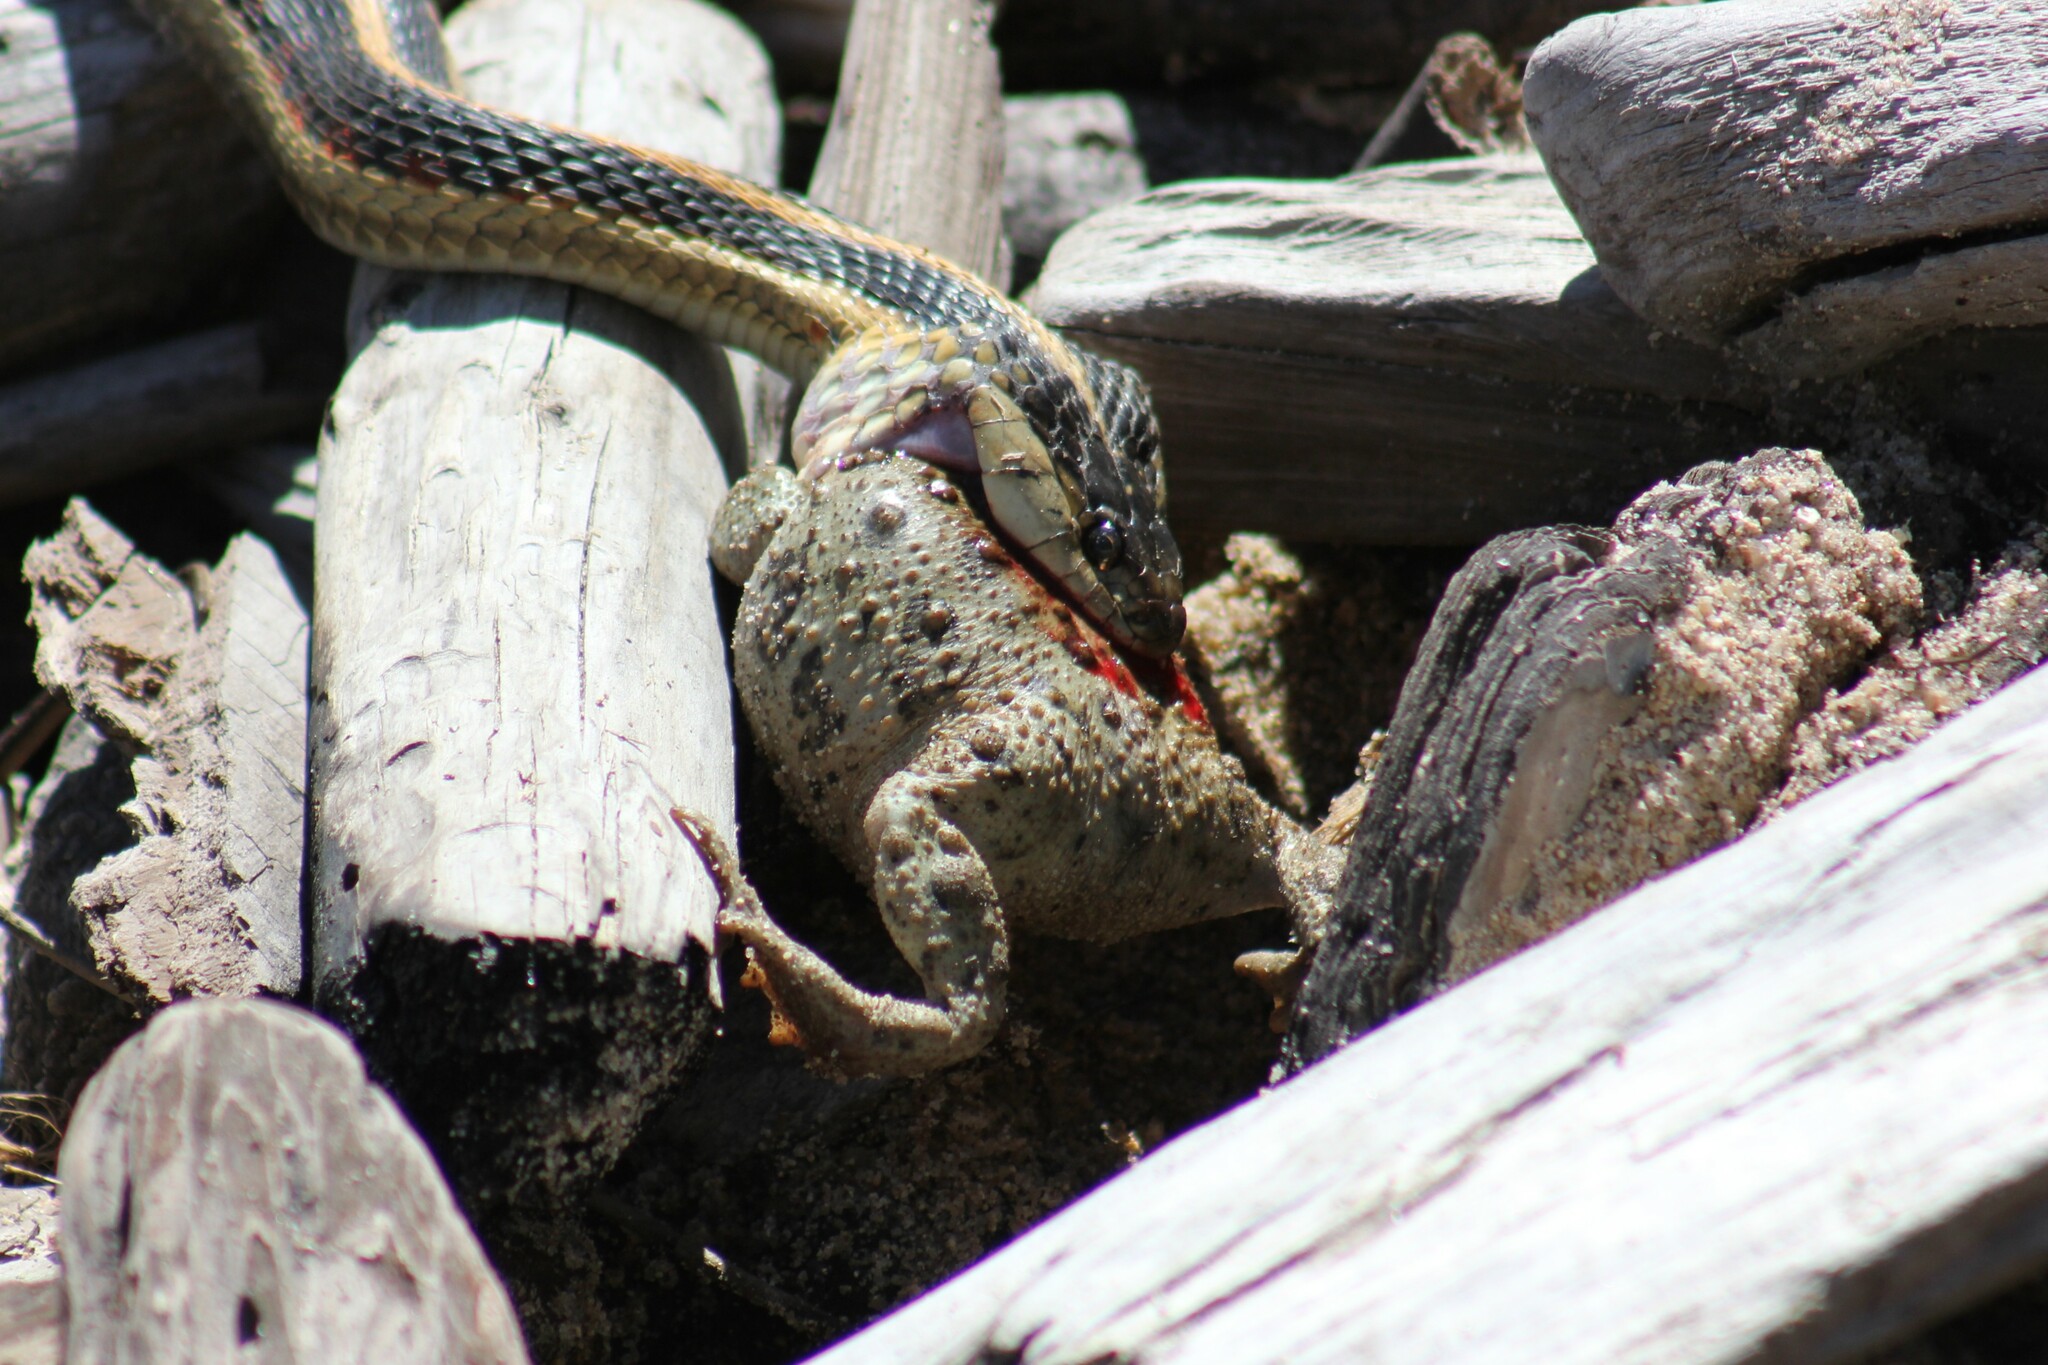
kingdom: Animalia
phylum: Chordata
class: Amphibia
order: Anura
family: Bufonidae
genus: Anaxyrus
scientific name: Anaxyrus boreas
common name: Western toad
